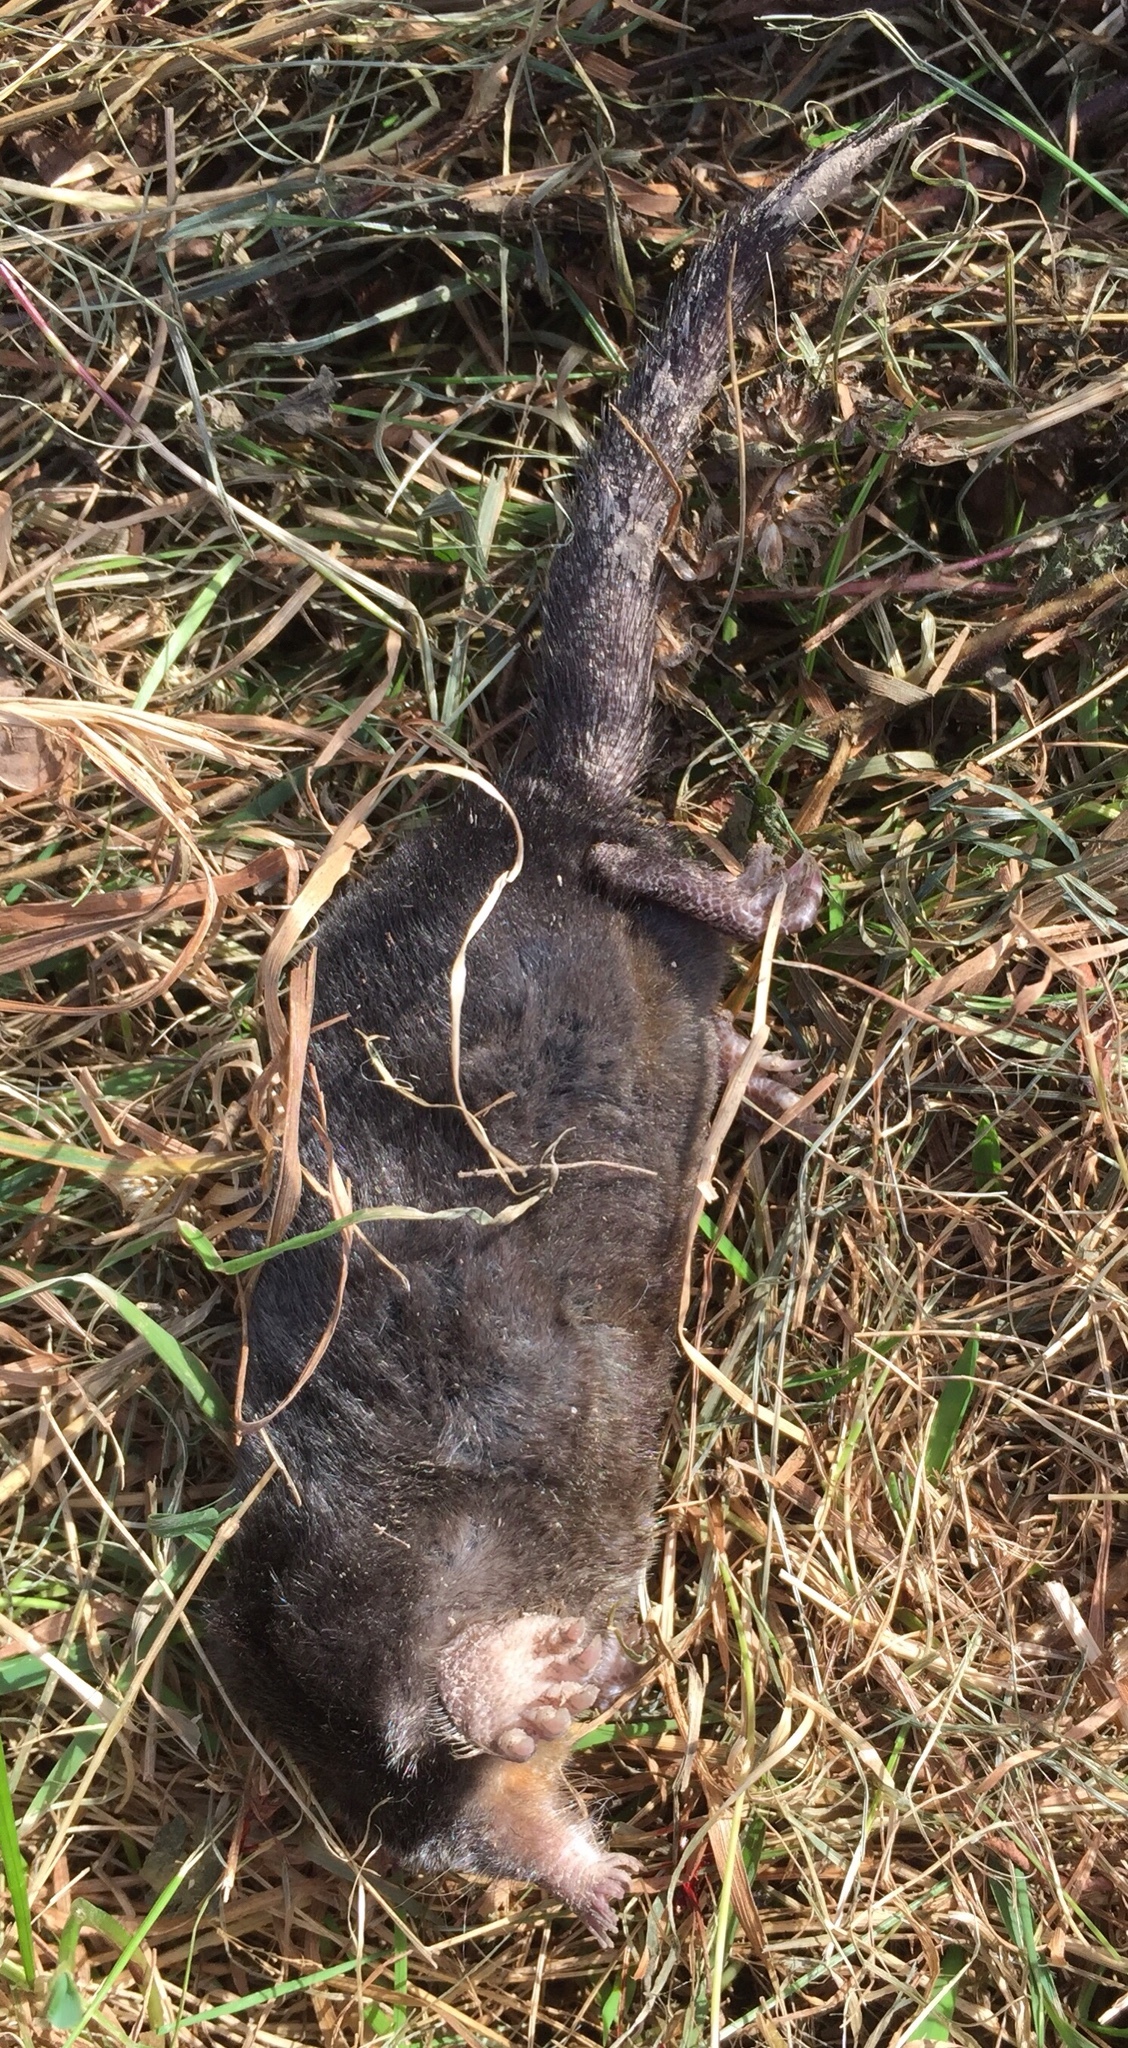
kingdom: Animalia
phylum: Chordata
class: Mammalia
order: Soricomorpha
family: Talpidae
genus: Condylura
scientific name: Condylura cristata
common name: Star-nosed mole
